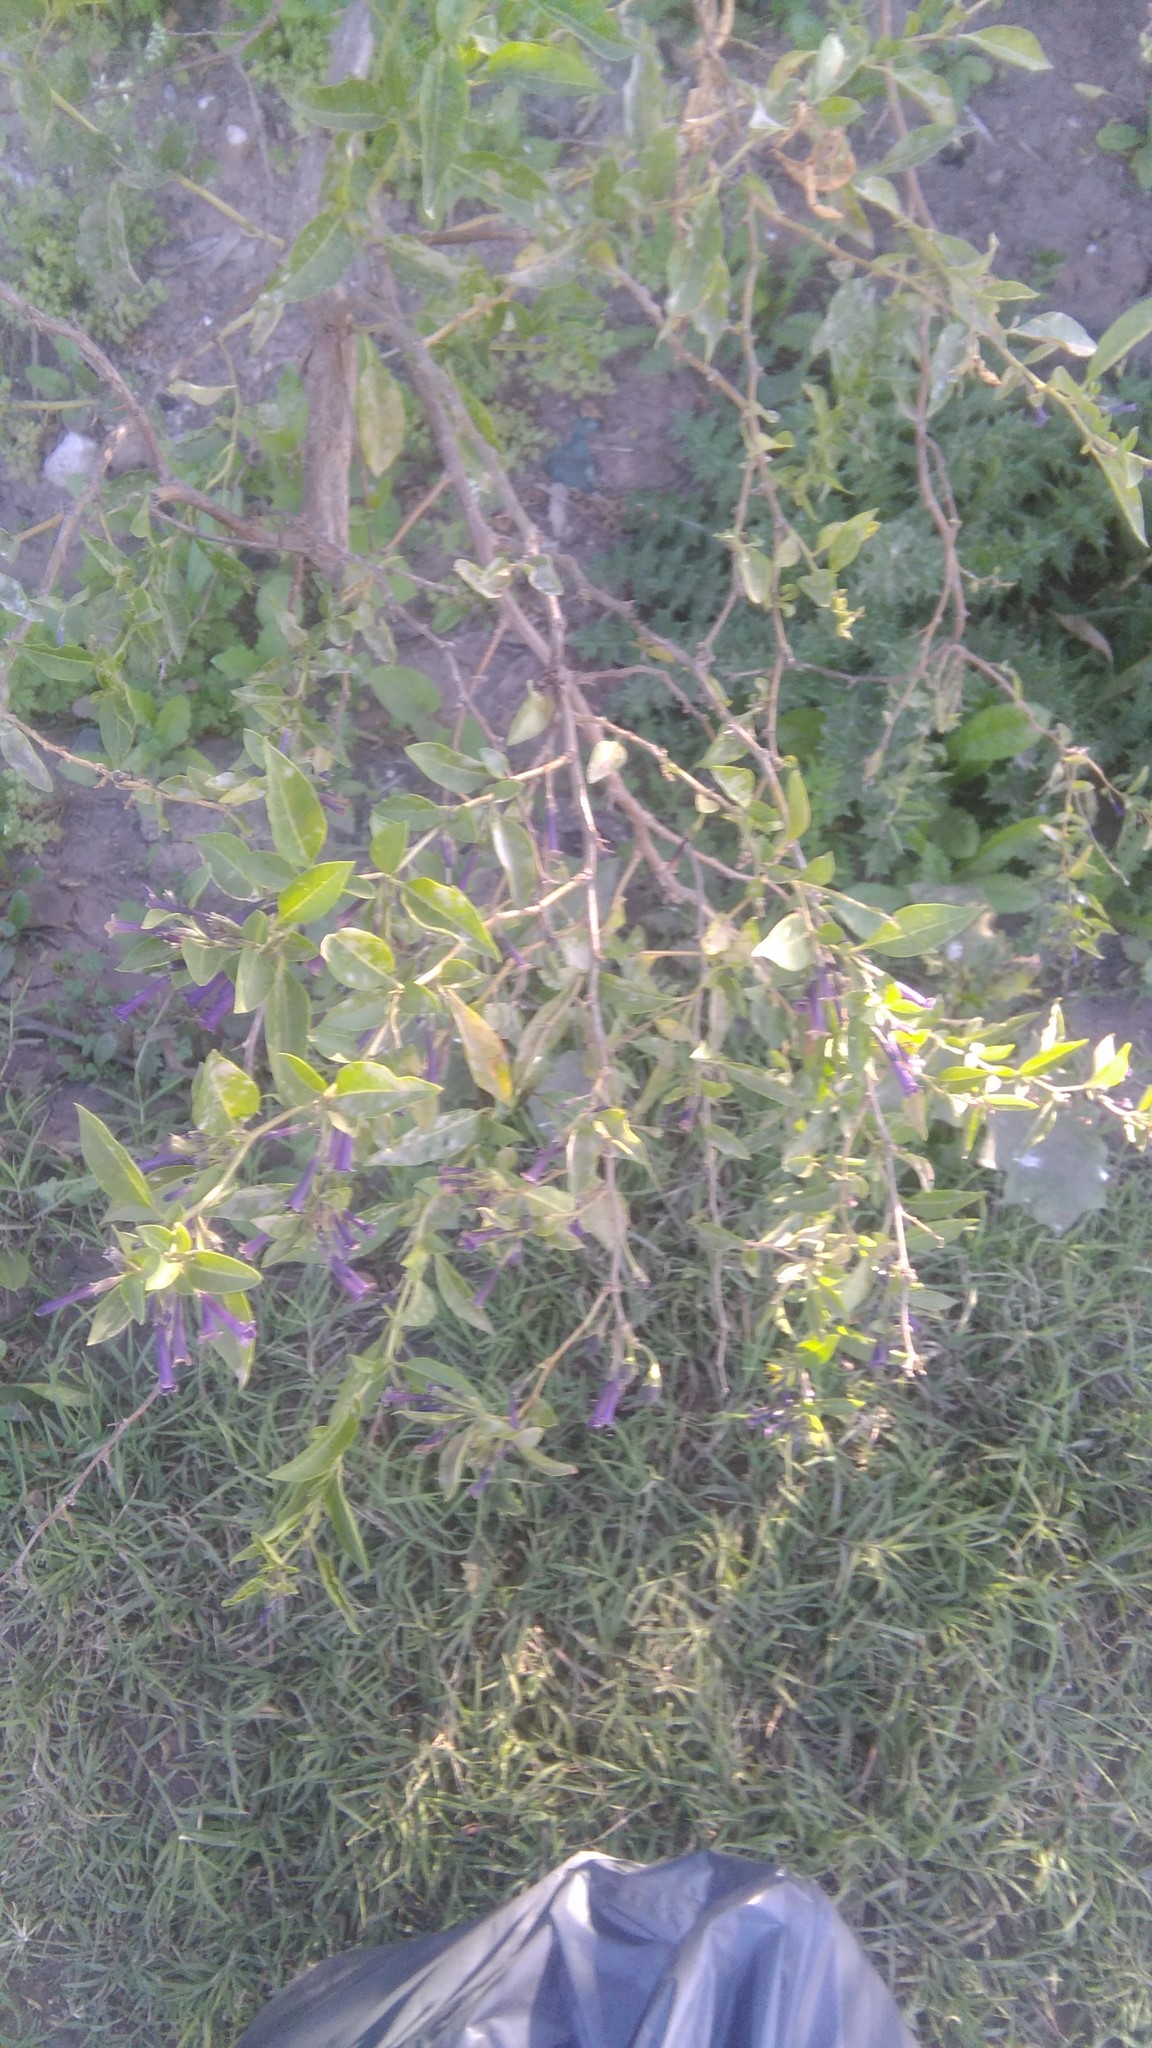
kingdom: Plantae
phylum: Tracheophyta
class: Magnoliopsida
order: Solanales
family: Solanaceae
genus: Lycium
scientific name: Lycium cestroides
